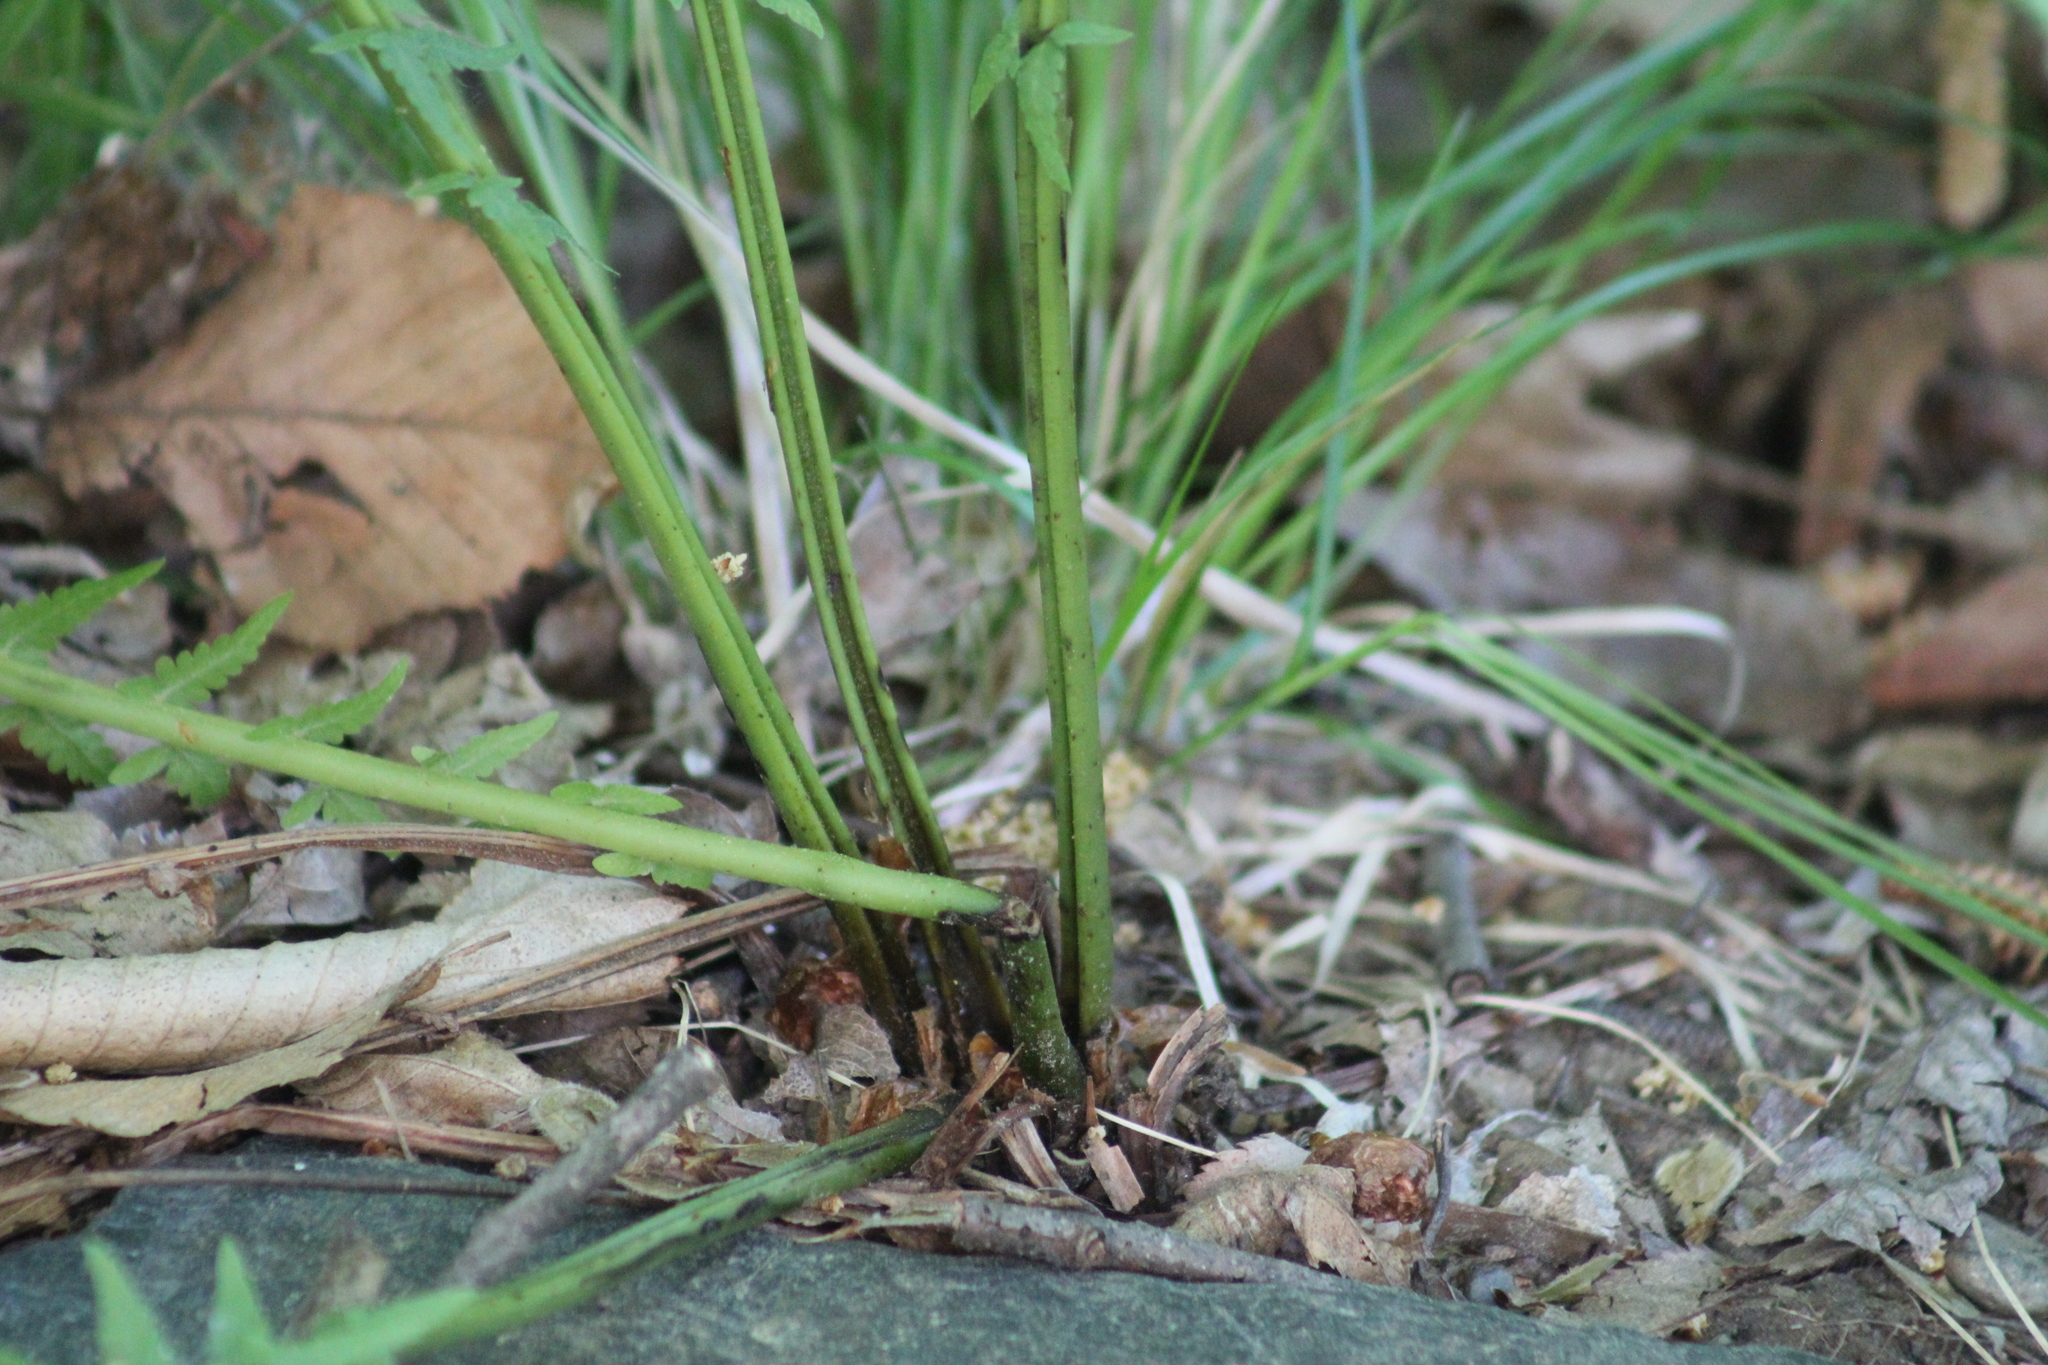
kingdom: Plantae
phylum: Tracheophyta
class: Polypodiopsida
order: Polypodiales
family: Onocleaceae
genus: Matteuccia
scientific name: Matteuccia struthiopteris
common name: Ostrich fern
